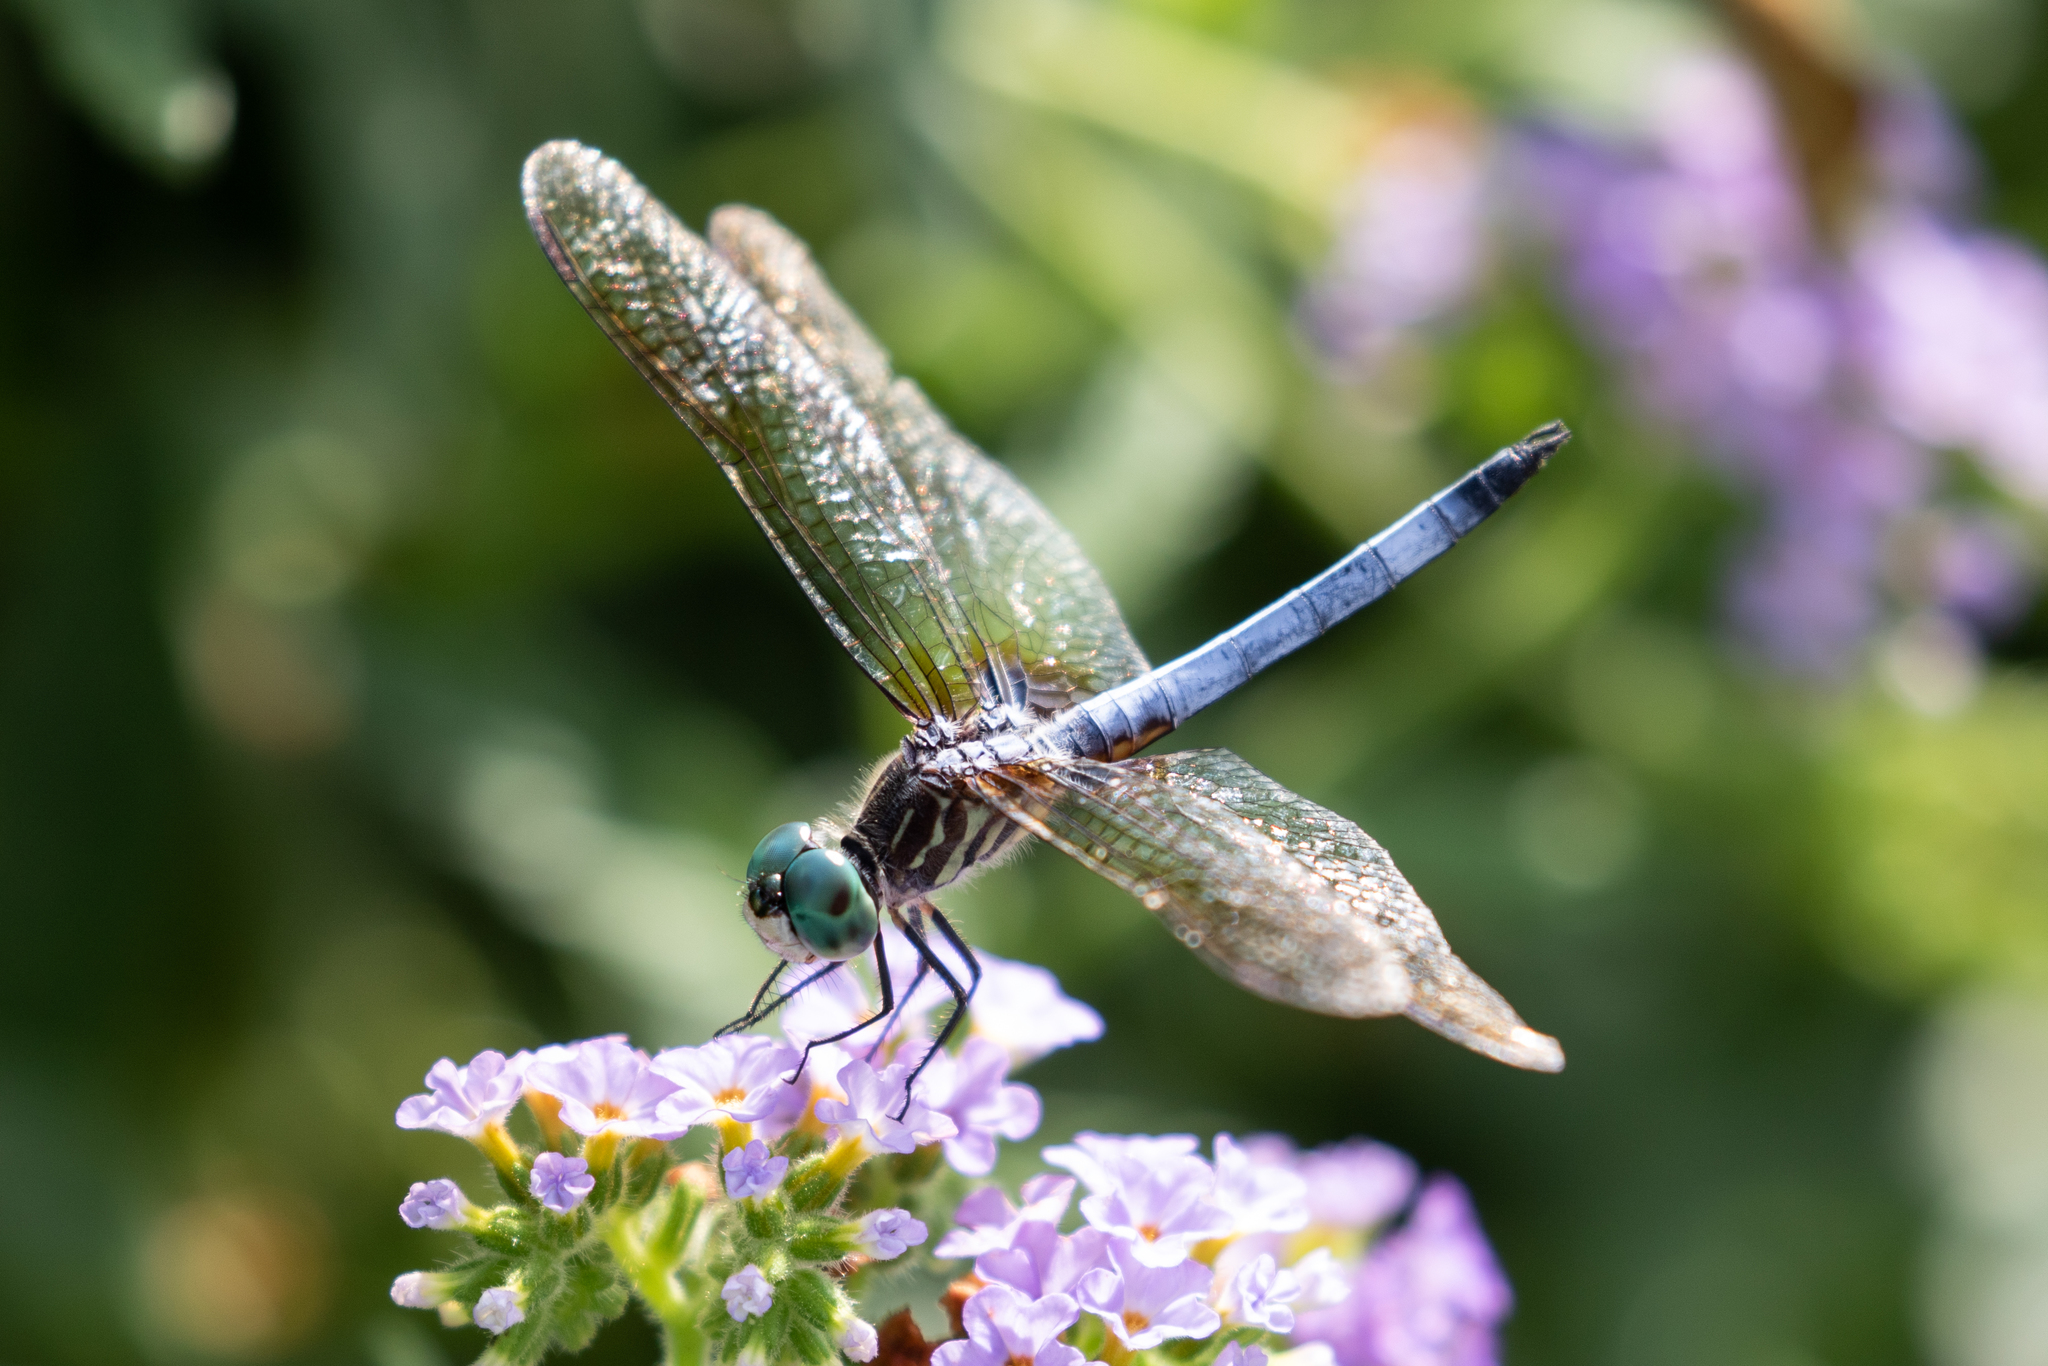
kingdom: Animalia
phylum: Arthropoda
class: Insecta
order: Odonata
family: Libellulidae
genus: Pachydiplax
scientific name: Pachydiplax longipennis
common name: Blue dasher
